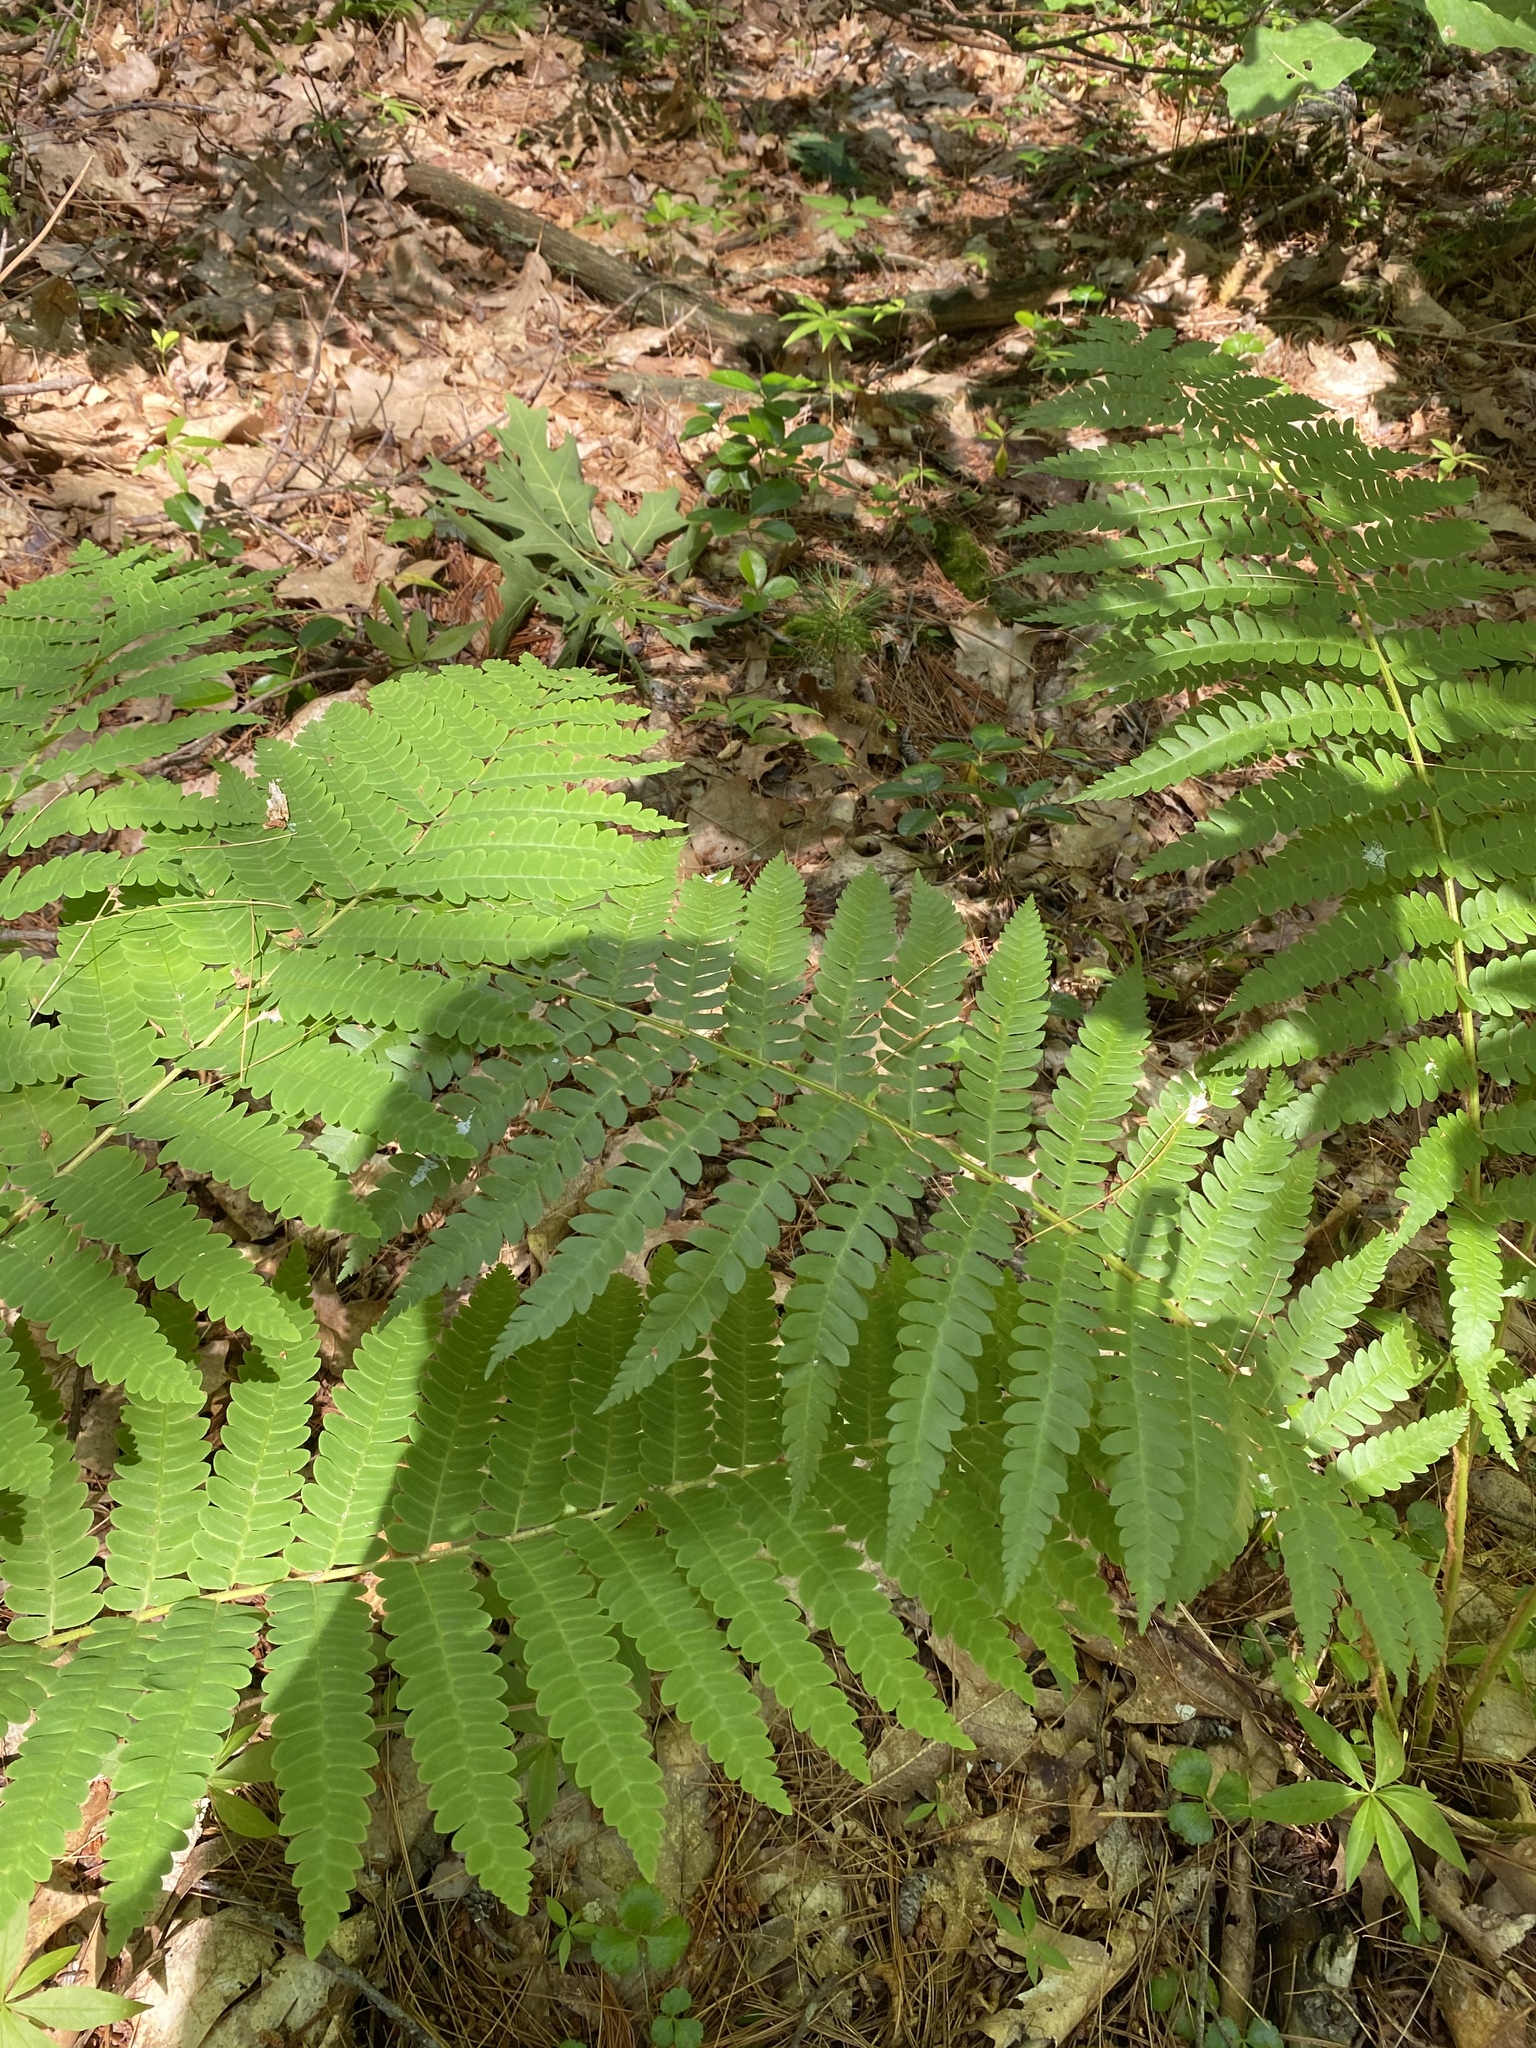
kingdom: Plantae
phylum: Tracheophyta
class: Polypodiopsida
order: Osmundales
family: Osmundaceae
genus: Claytosmunda
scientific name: Claytosmunda claytoniana
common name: Clayton's fern
